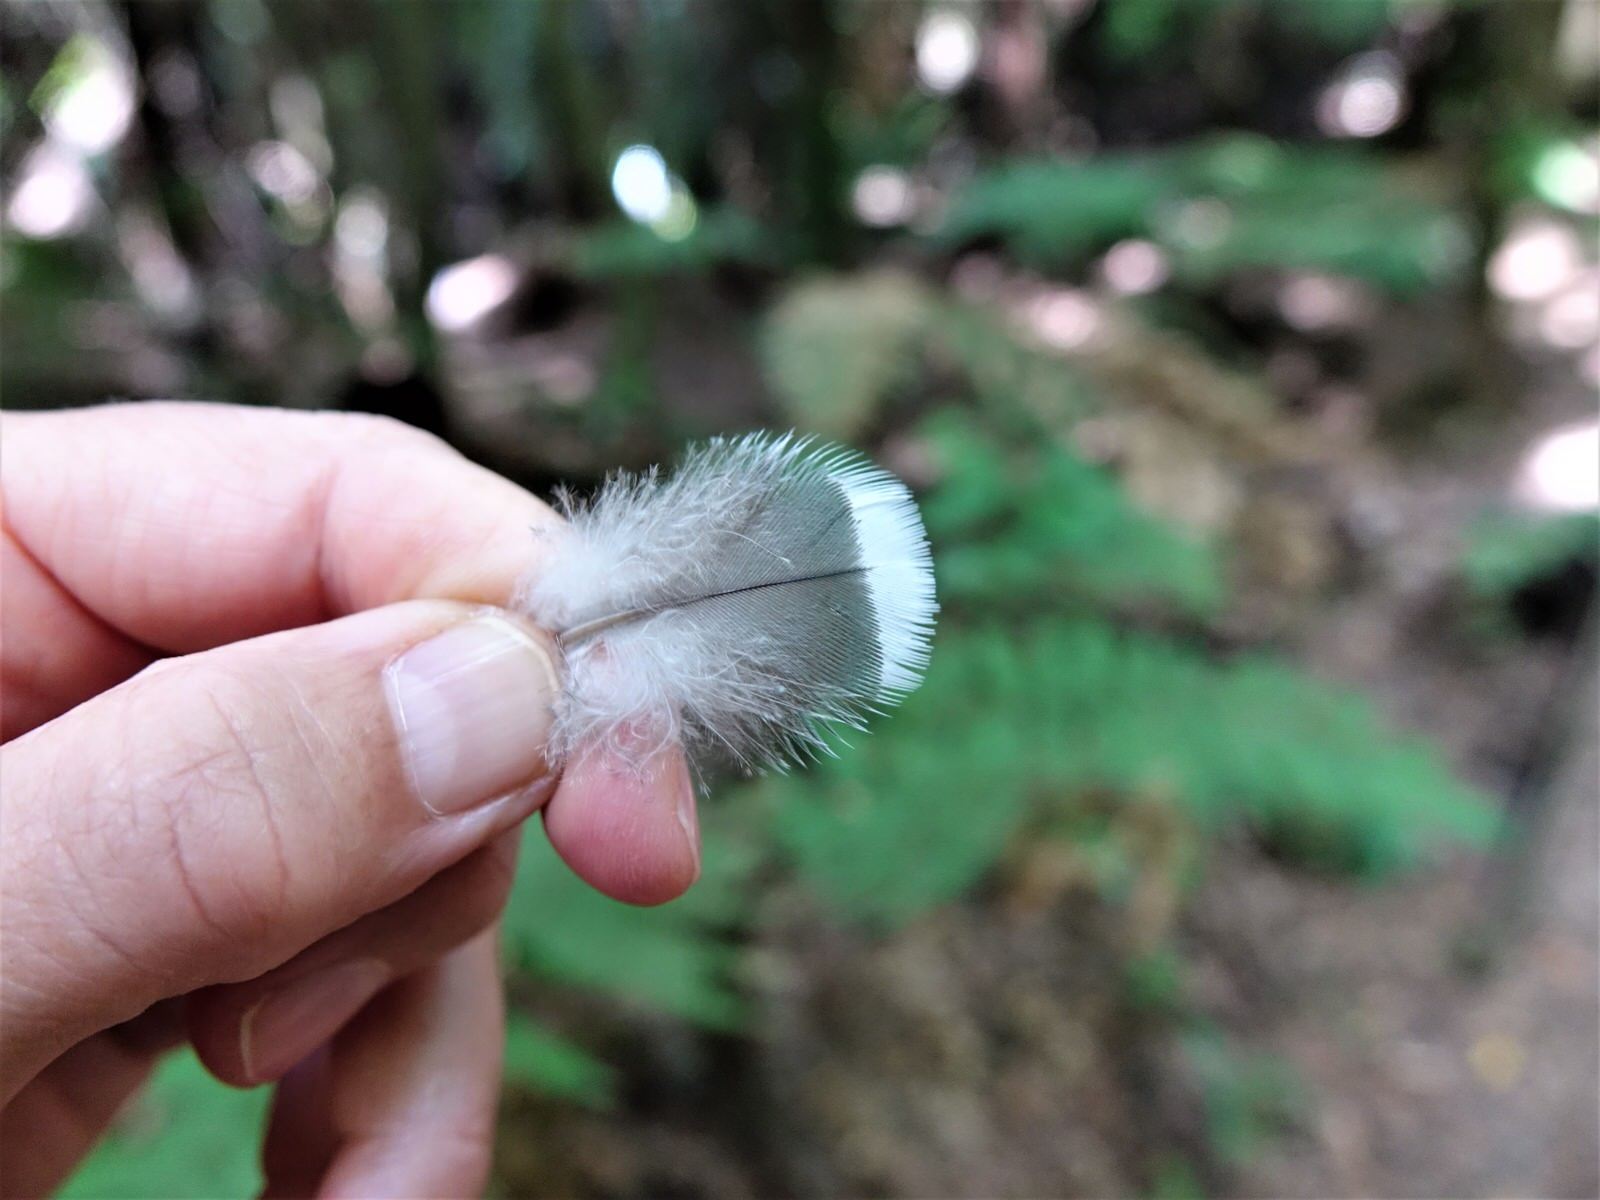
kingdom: Animalia
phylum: Chordata
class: Aves
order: Columbiformes
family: Columbidae
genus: Hemiphaga
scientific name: Hemiphaga novaeseelandiae
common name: New zealand pigeon
